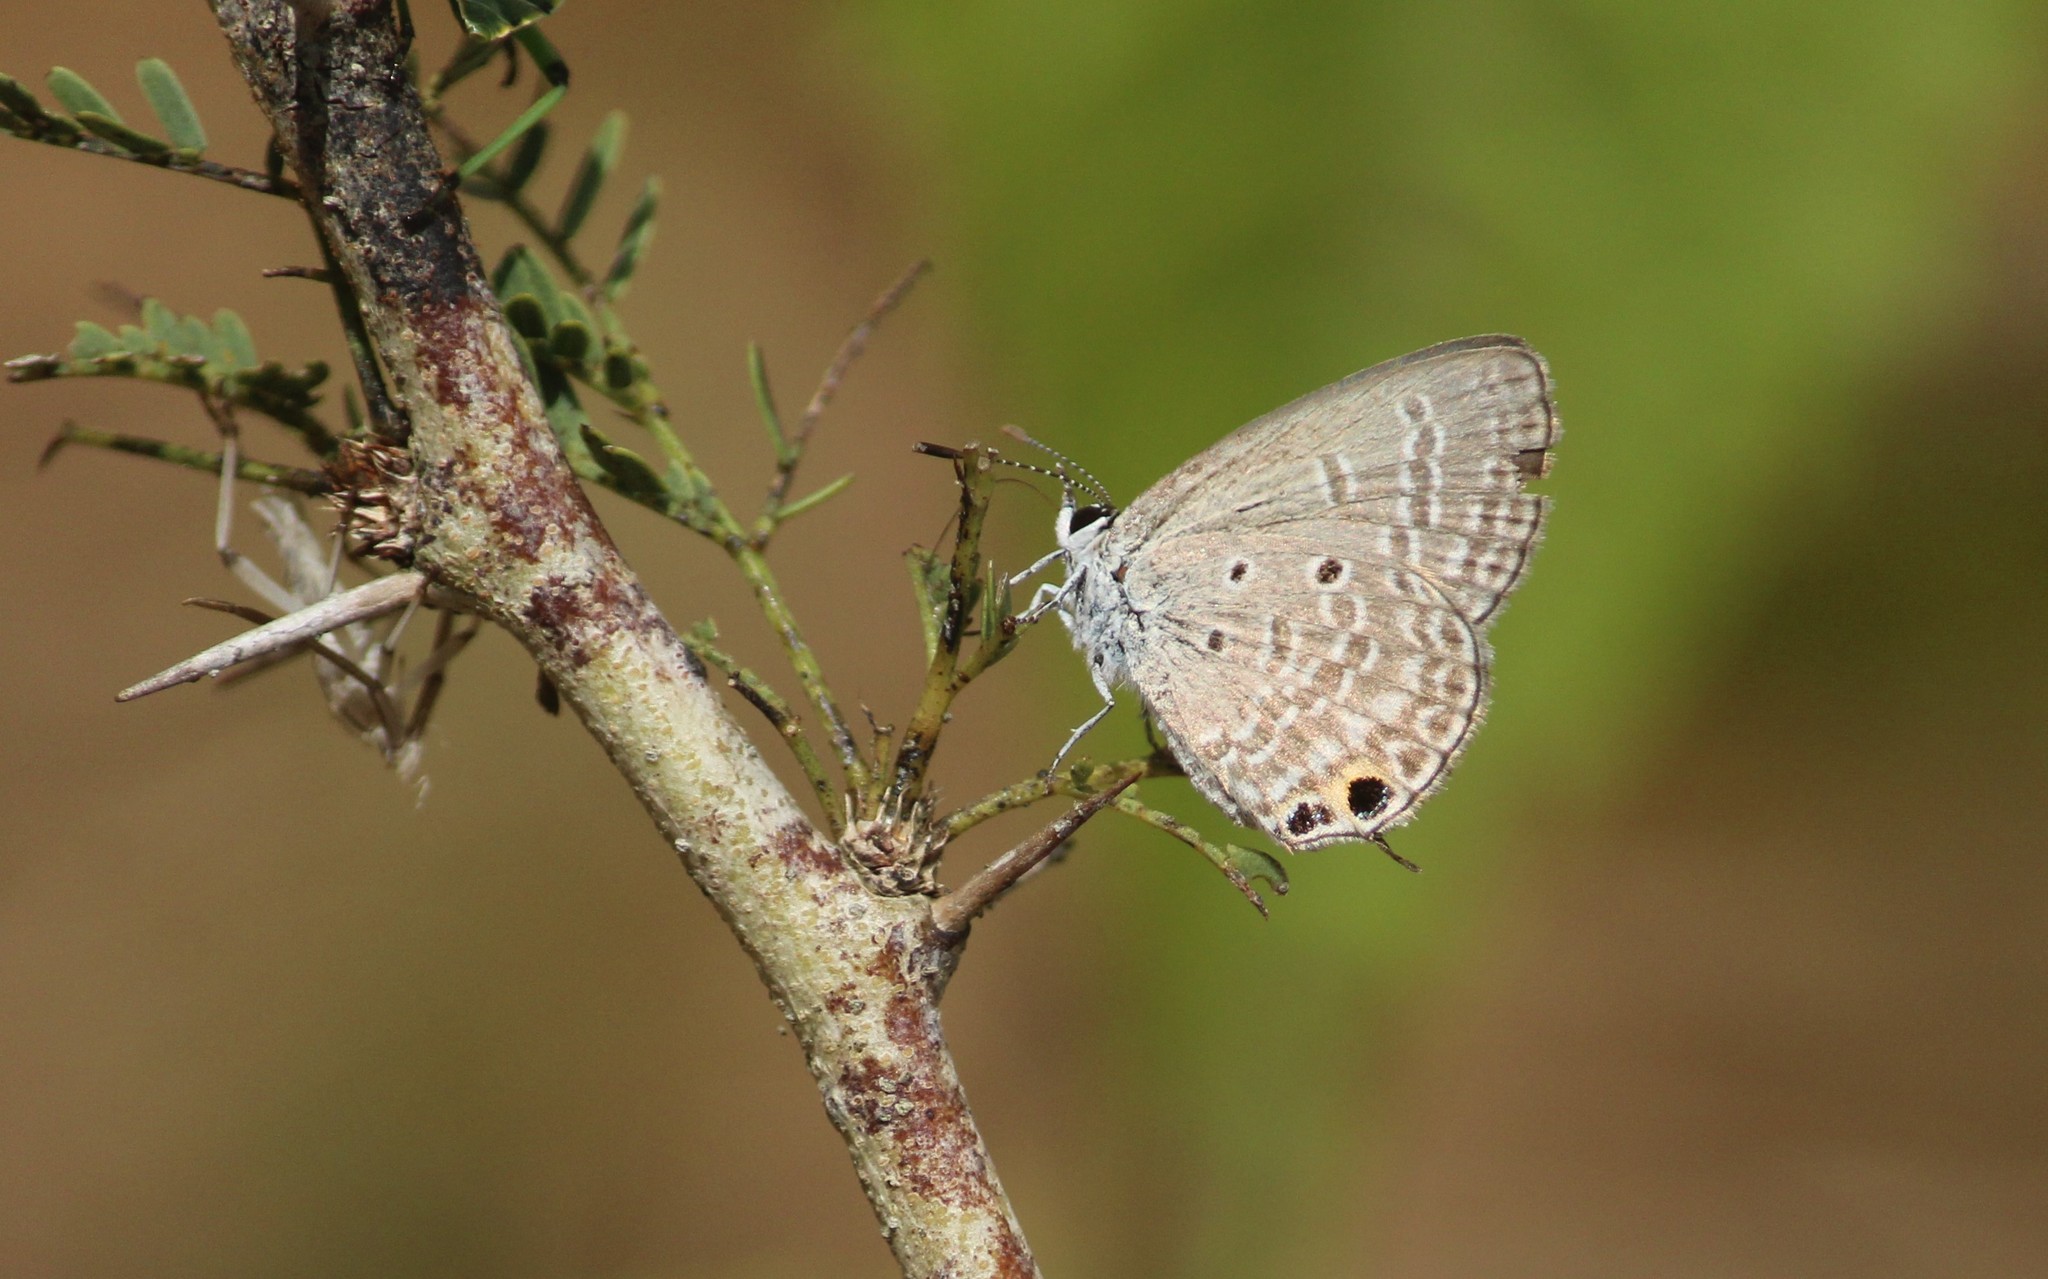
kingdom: Animalia
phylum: Arthropoda
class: Insecta
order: Lepidoptera
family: Lycaenidae
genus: Chilades
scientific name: Chilades parrhasius
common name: Small cupid
